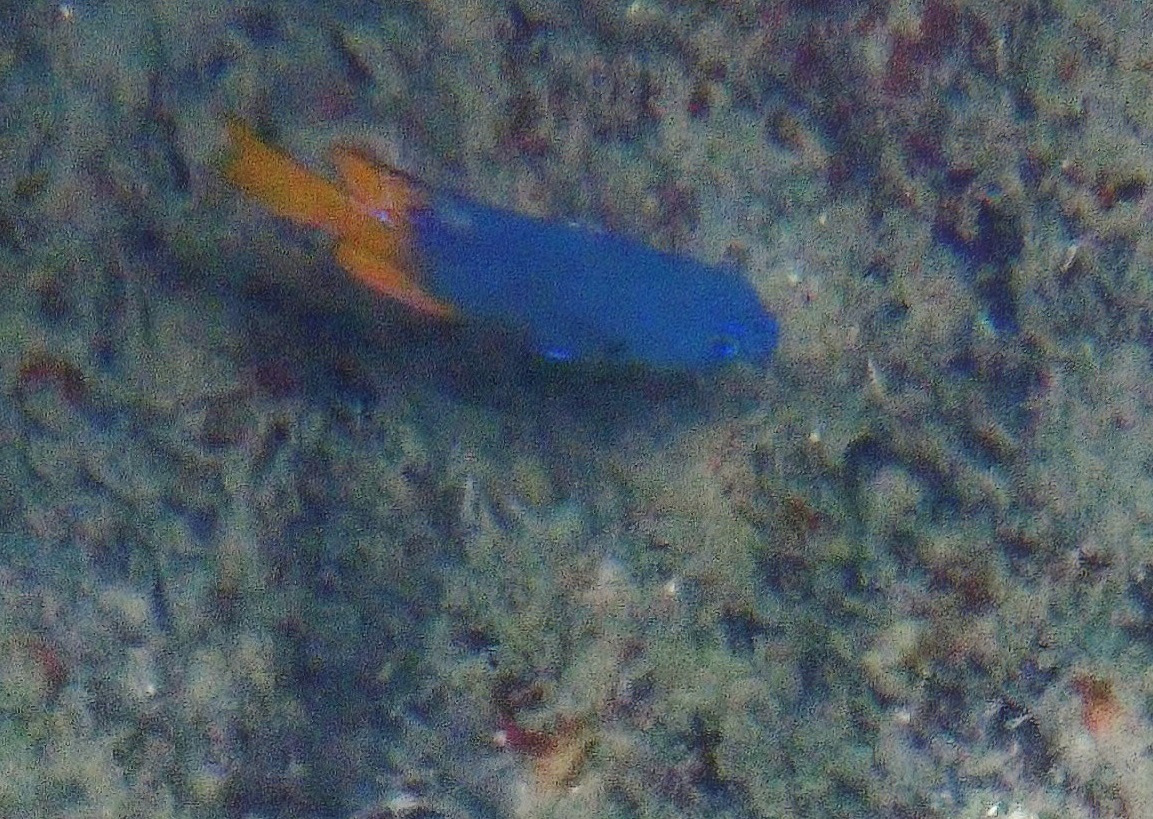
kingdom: Animalia
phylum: Chordata
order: Perciformes
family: Pomacentridae
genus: Pomacentrus
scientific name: Pomacentrus
